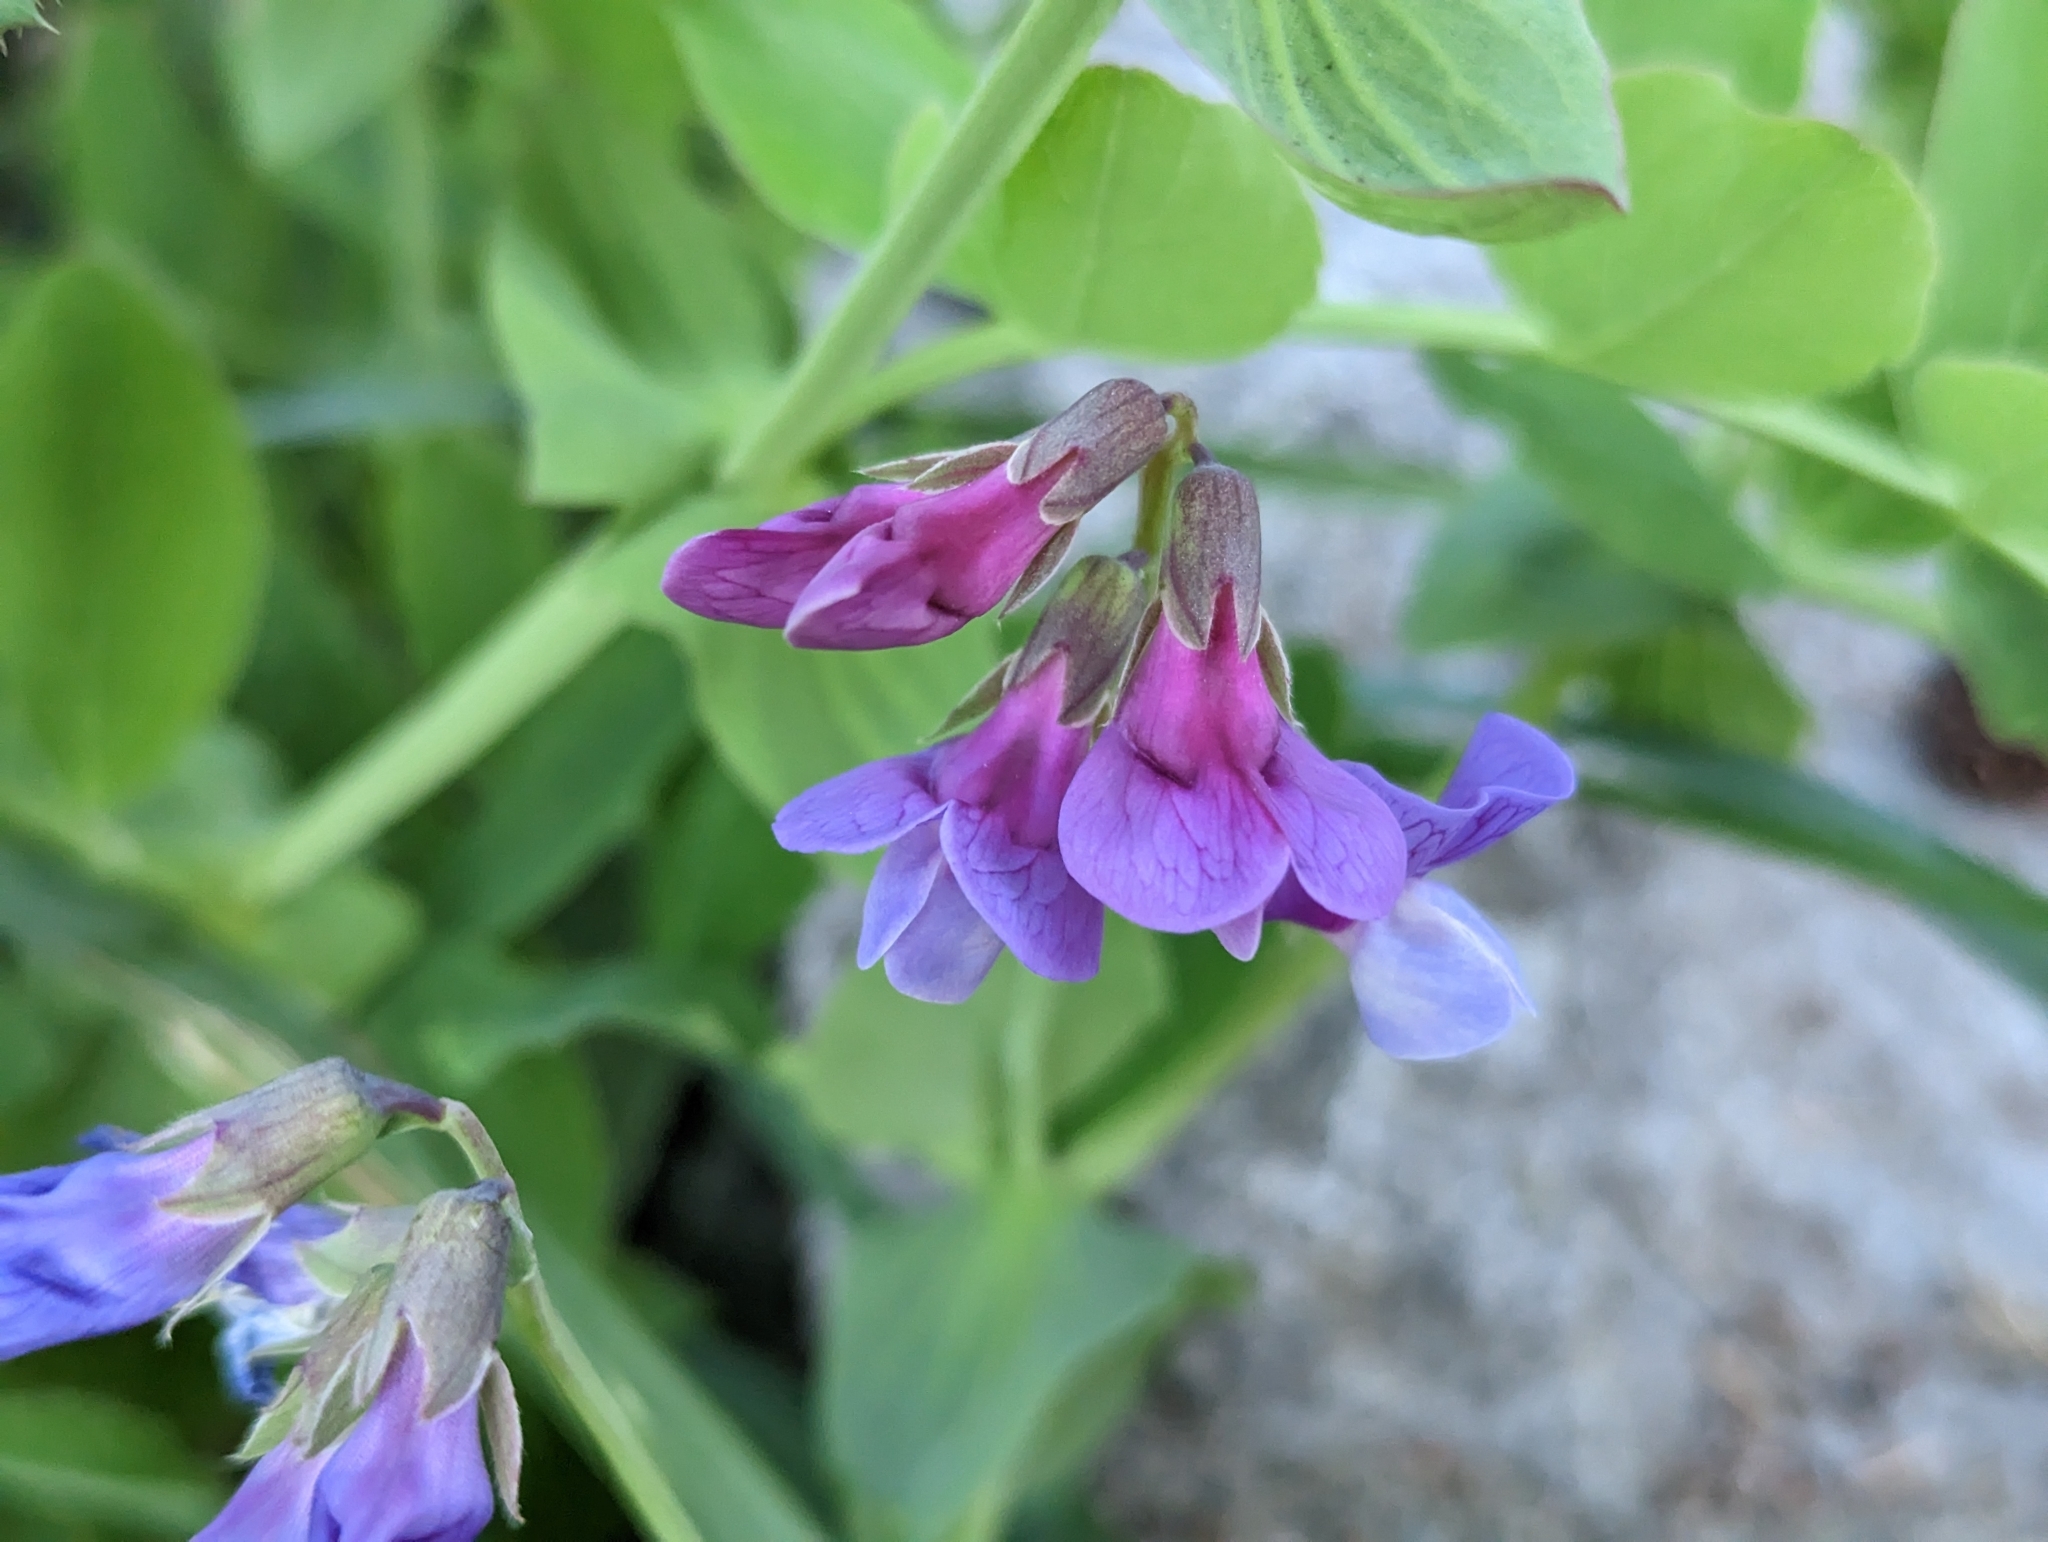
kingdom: Plantae
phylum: Tracheophyta
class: Magnoliopsida
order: Fabales
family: Fabaceae
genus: Lathyrus
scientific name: Lathyrus japonicus
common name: Sea pea
